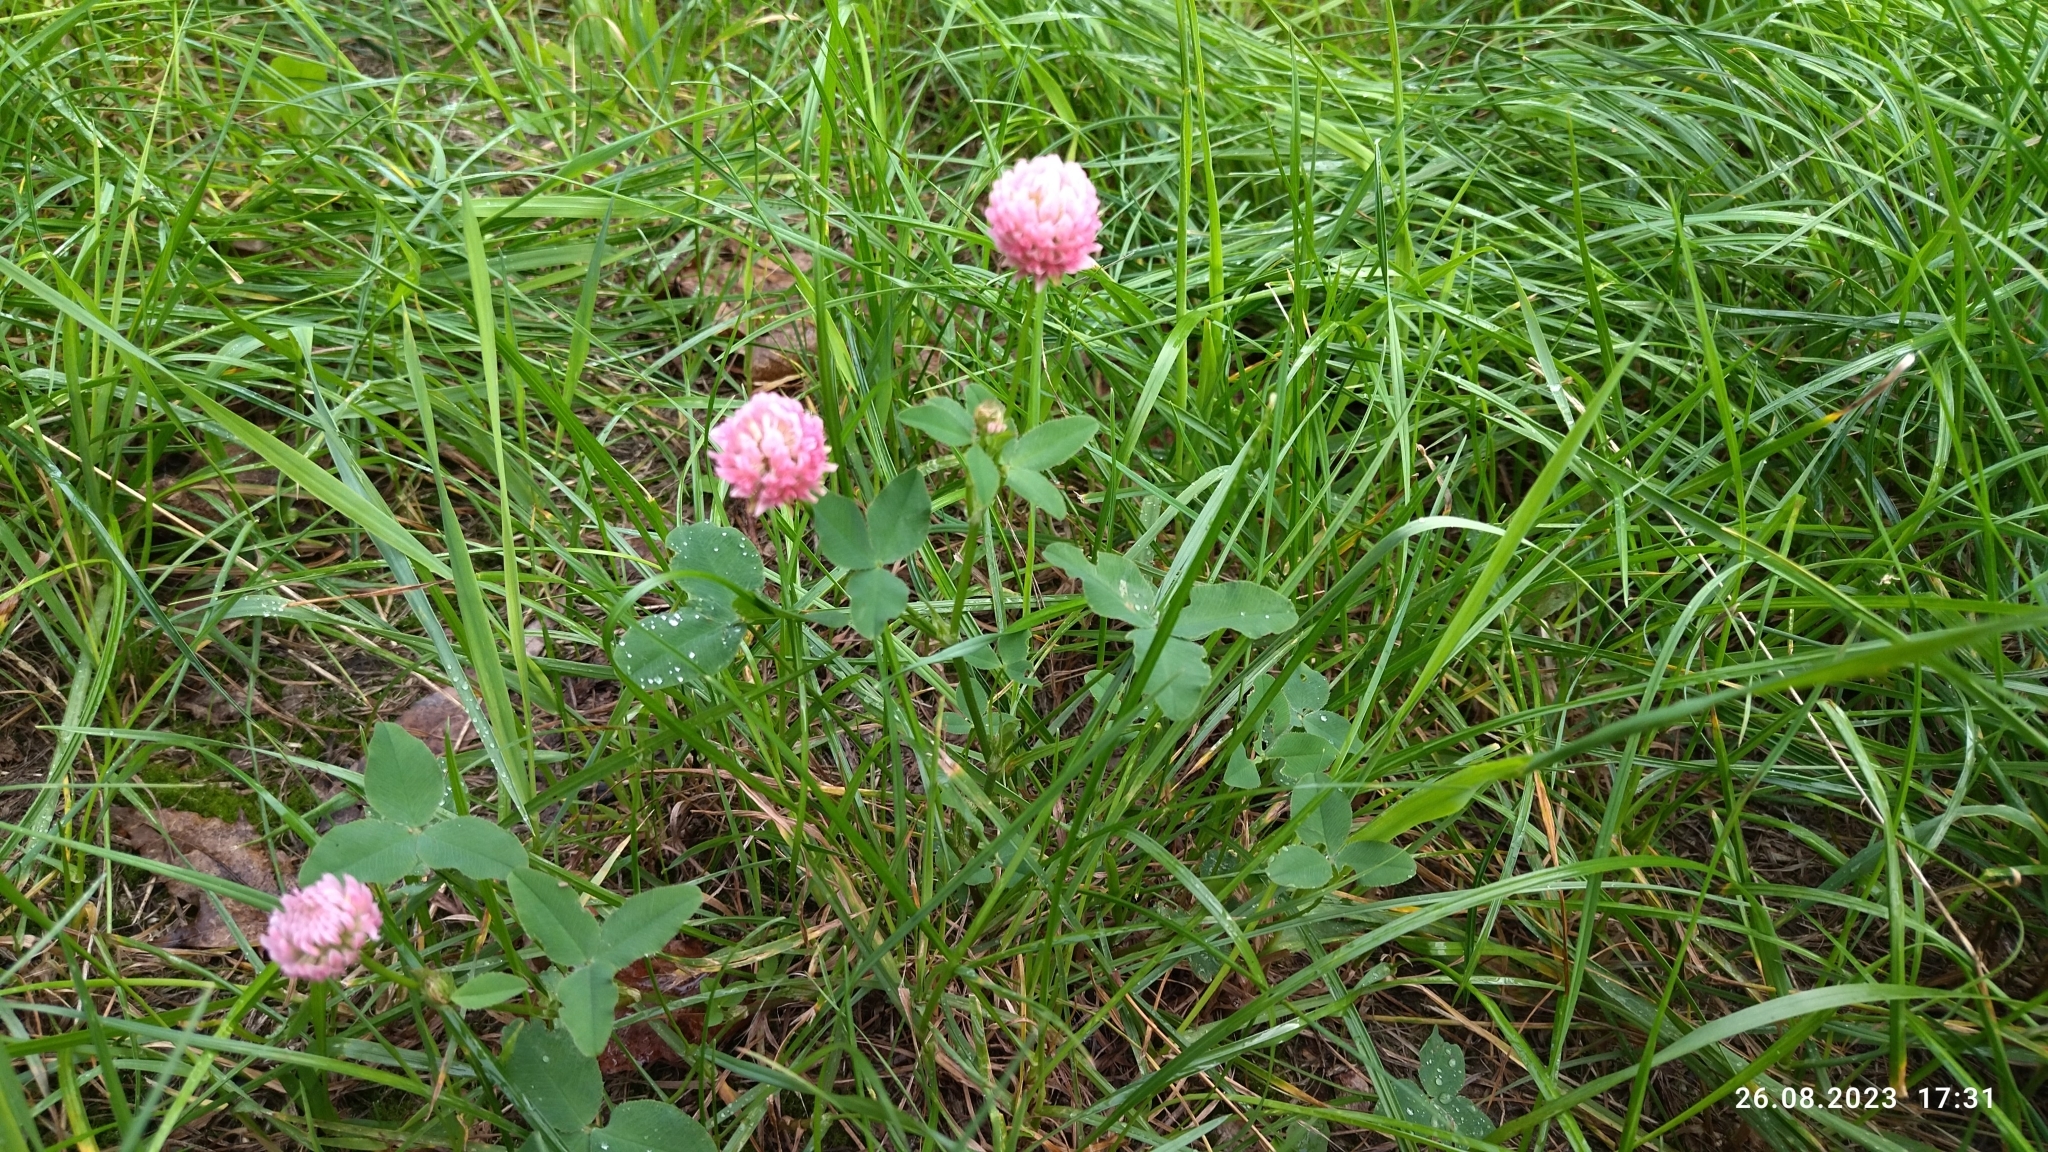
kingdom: Plantae
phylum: Tracheophyta
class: Magnoliopsida
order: Fabales
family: Fabaceae
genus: Trifolium
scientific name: Trifolium hybridum
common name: Alsike clover
